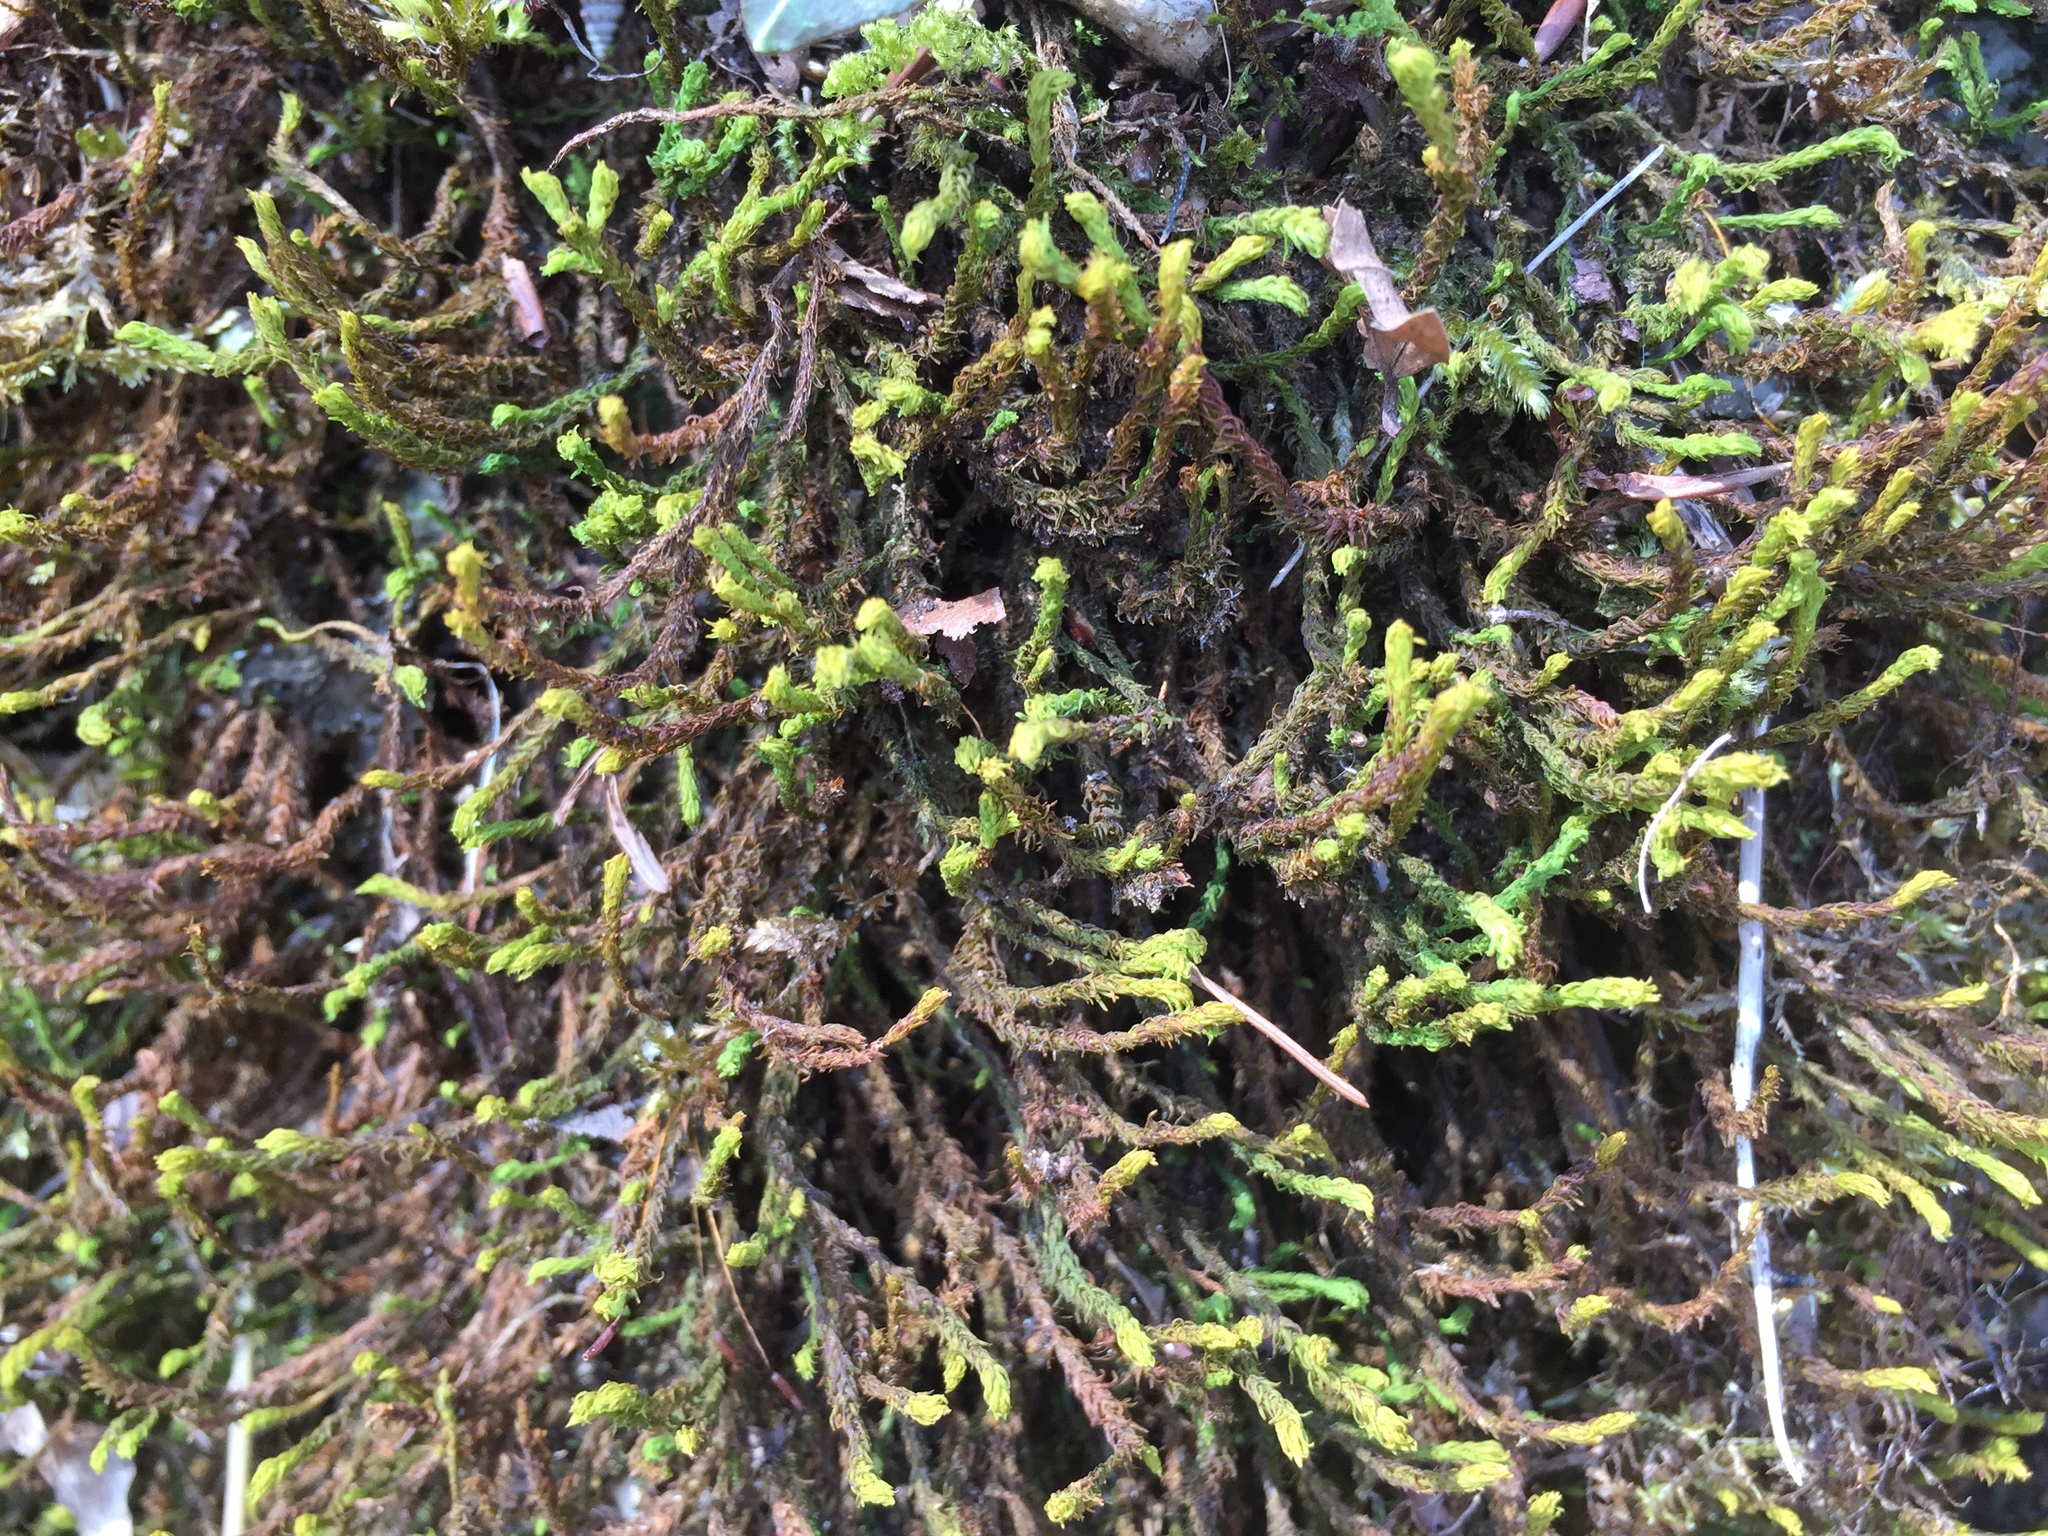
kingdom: Plantae
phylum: Bryophyta
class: Bryopsida
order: Hypnales
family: Anomodontaceae
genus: Anomodon
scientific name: Anomodon viticulosus
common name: Tall anomodon
